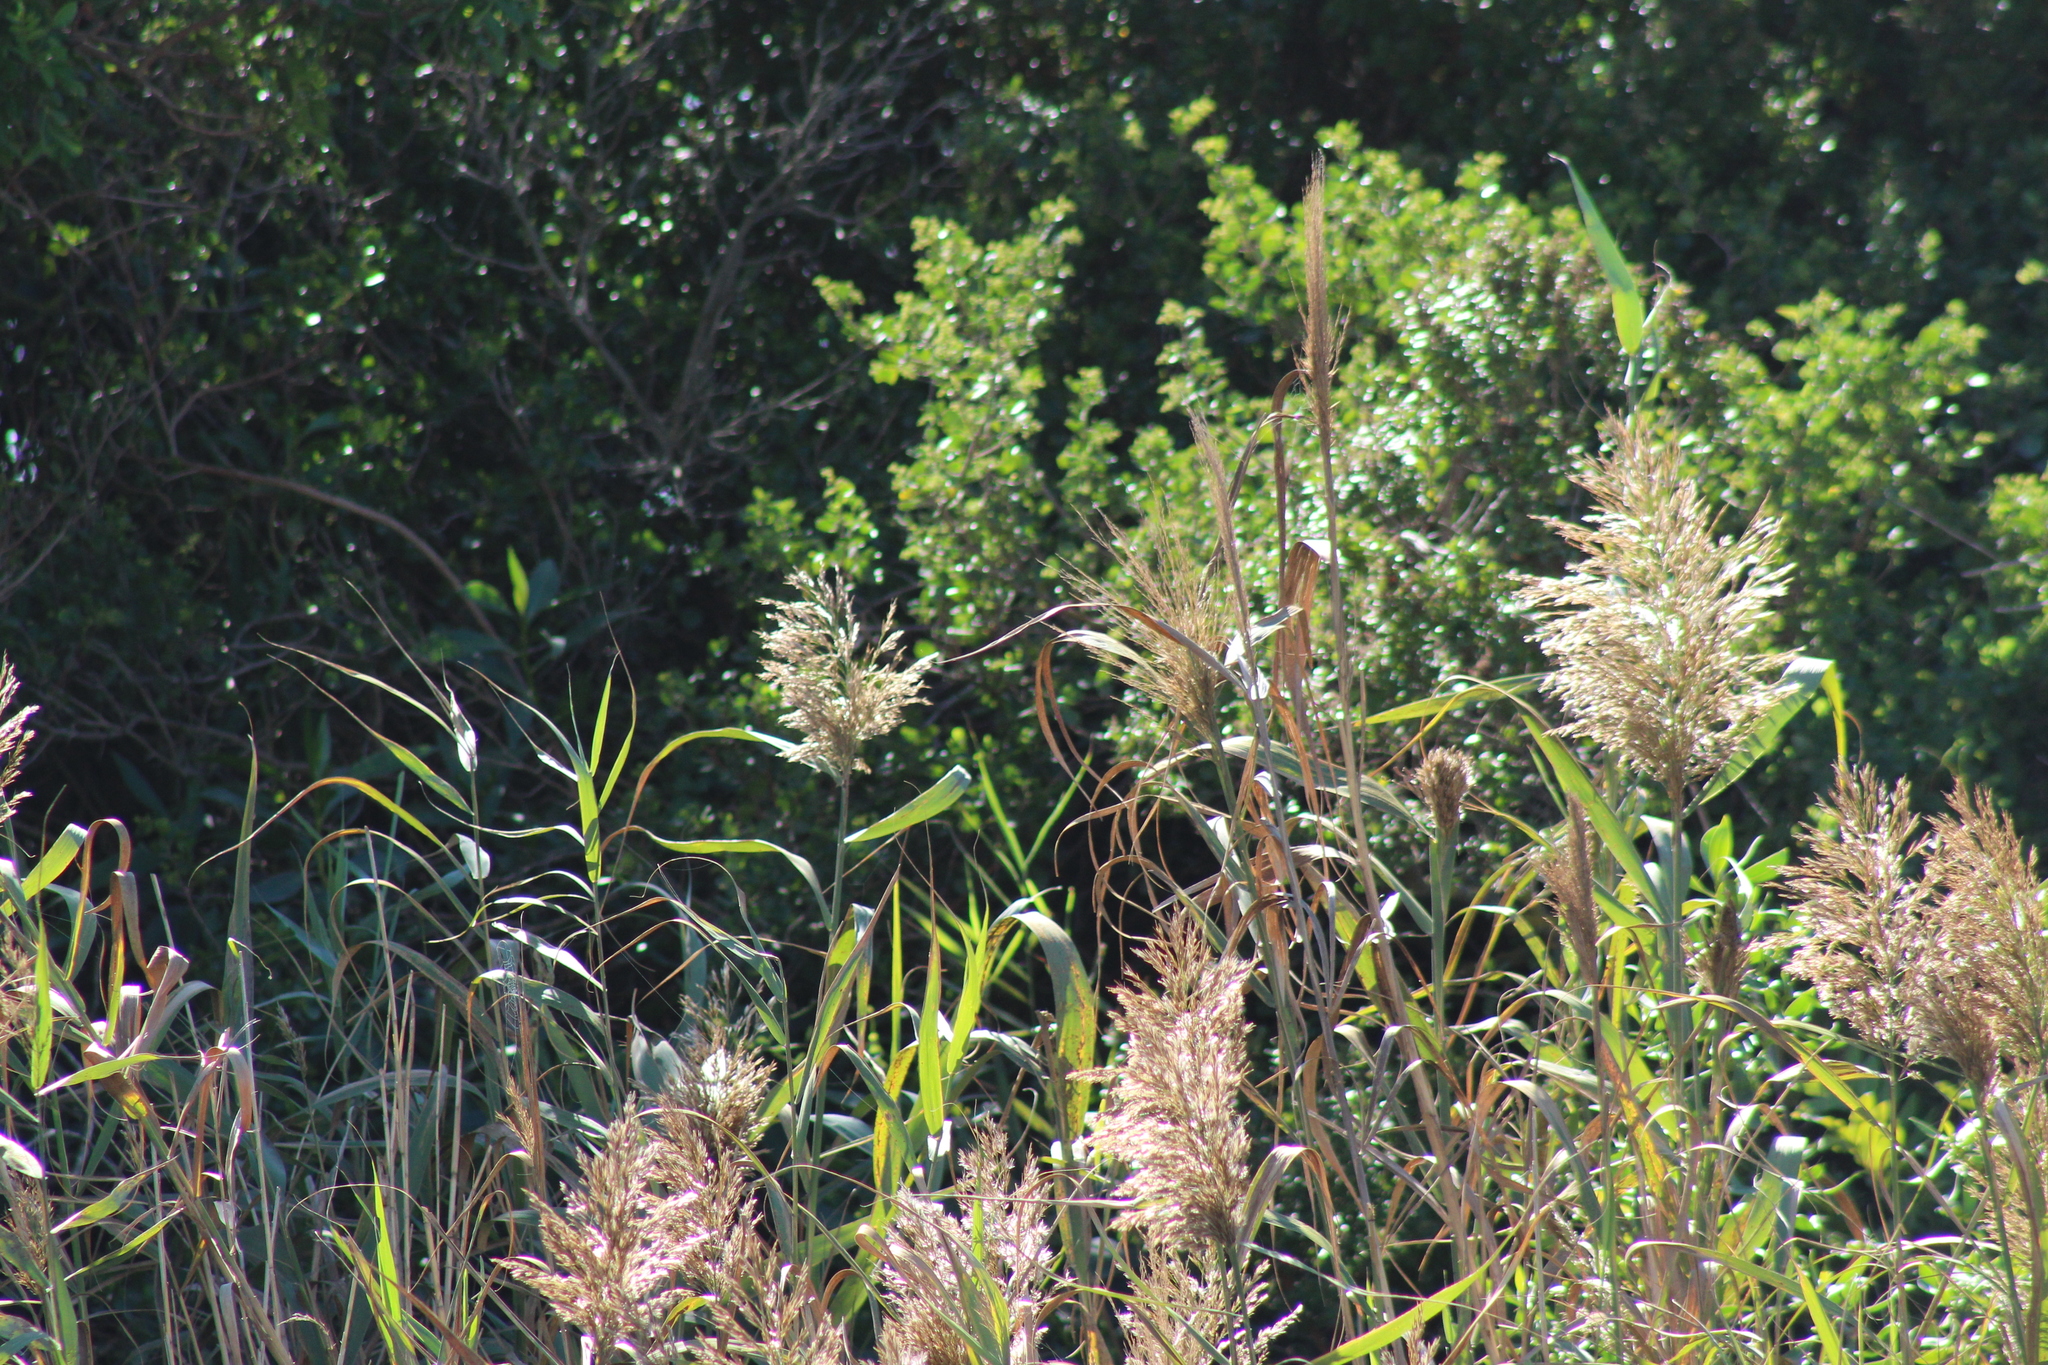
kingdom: Plantae
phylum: Tracheophyta
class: Liliopsida
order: Poales
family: Poaceae
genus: Phragmites
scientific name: Phragmites australis
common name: Common reed
